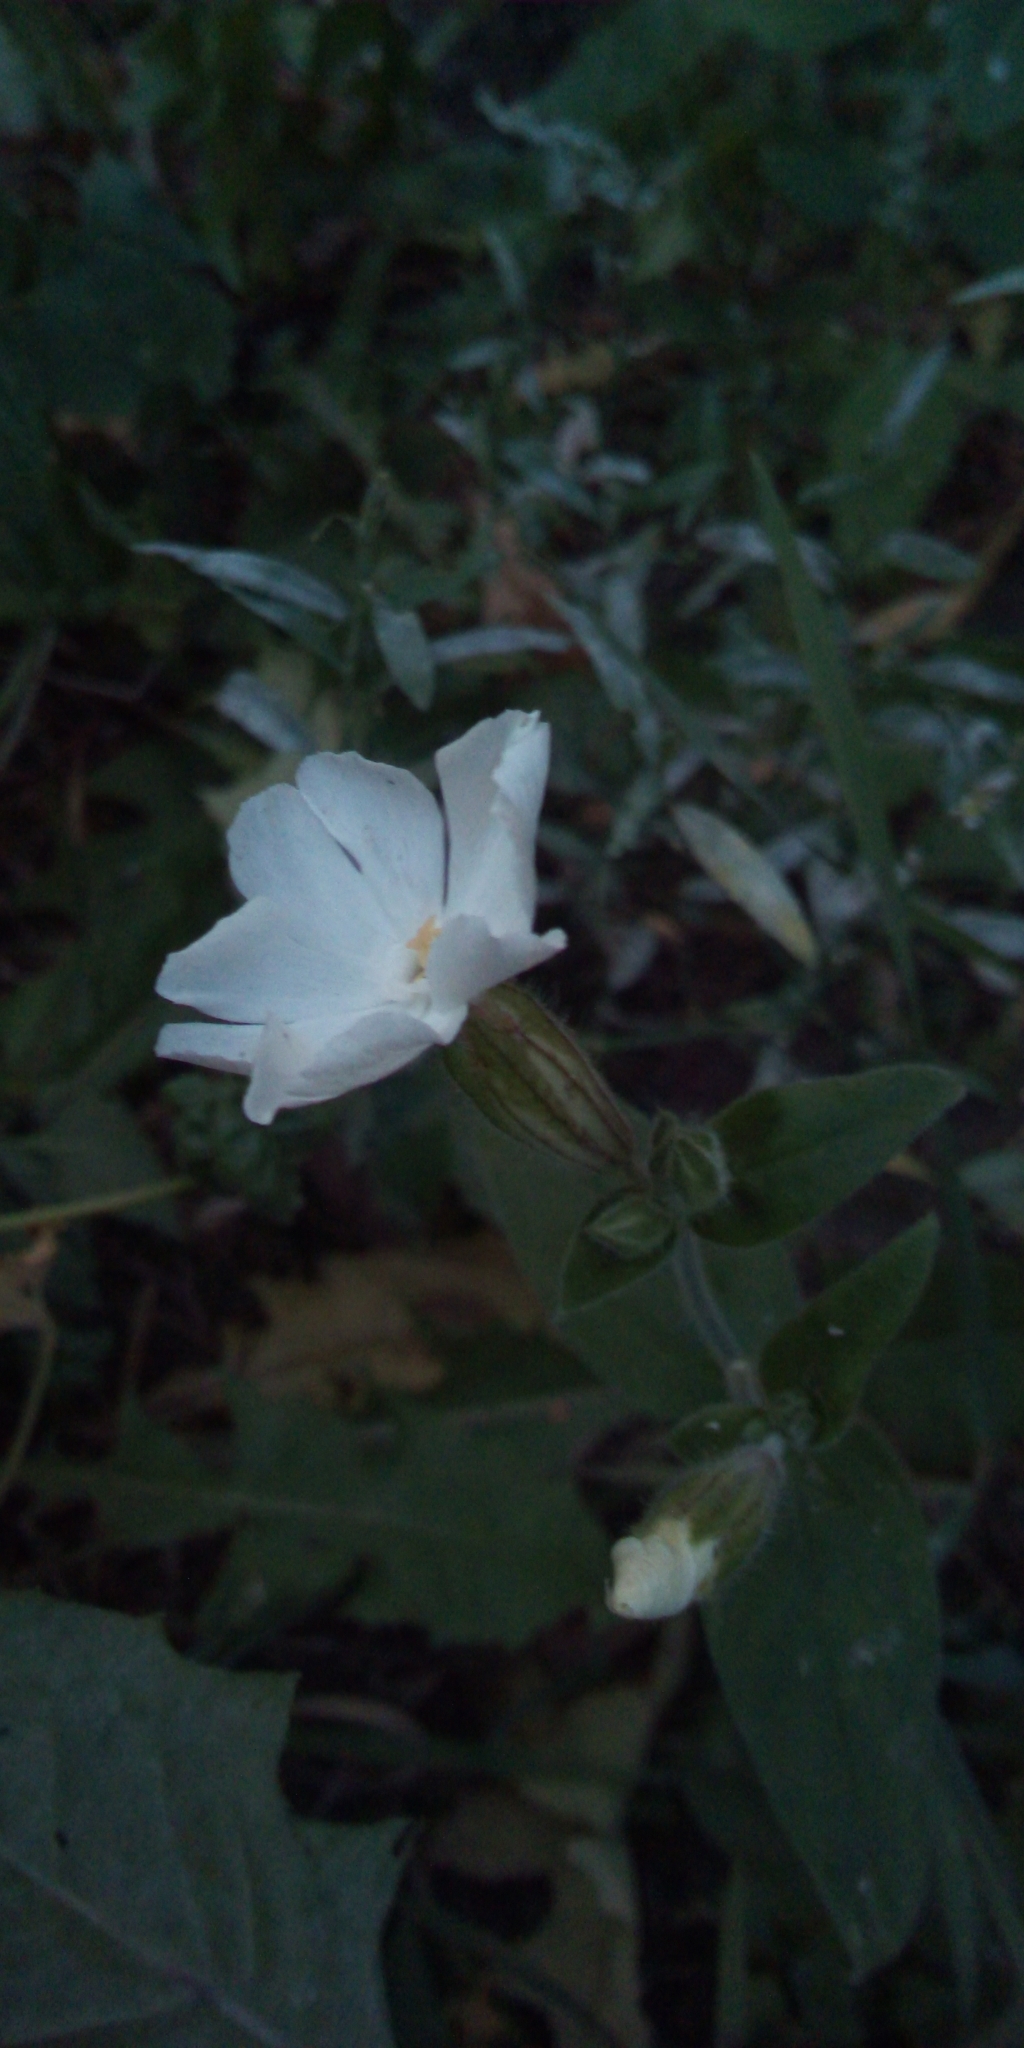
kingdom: Plantae
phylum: Tracheophyta
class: Magnoliopsida
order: Caryophyllales
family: Caryophyllaceae
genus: Silene
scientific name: Silene latifolia
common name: White campion
